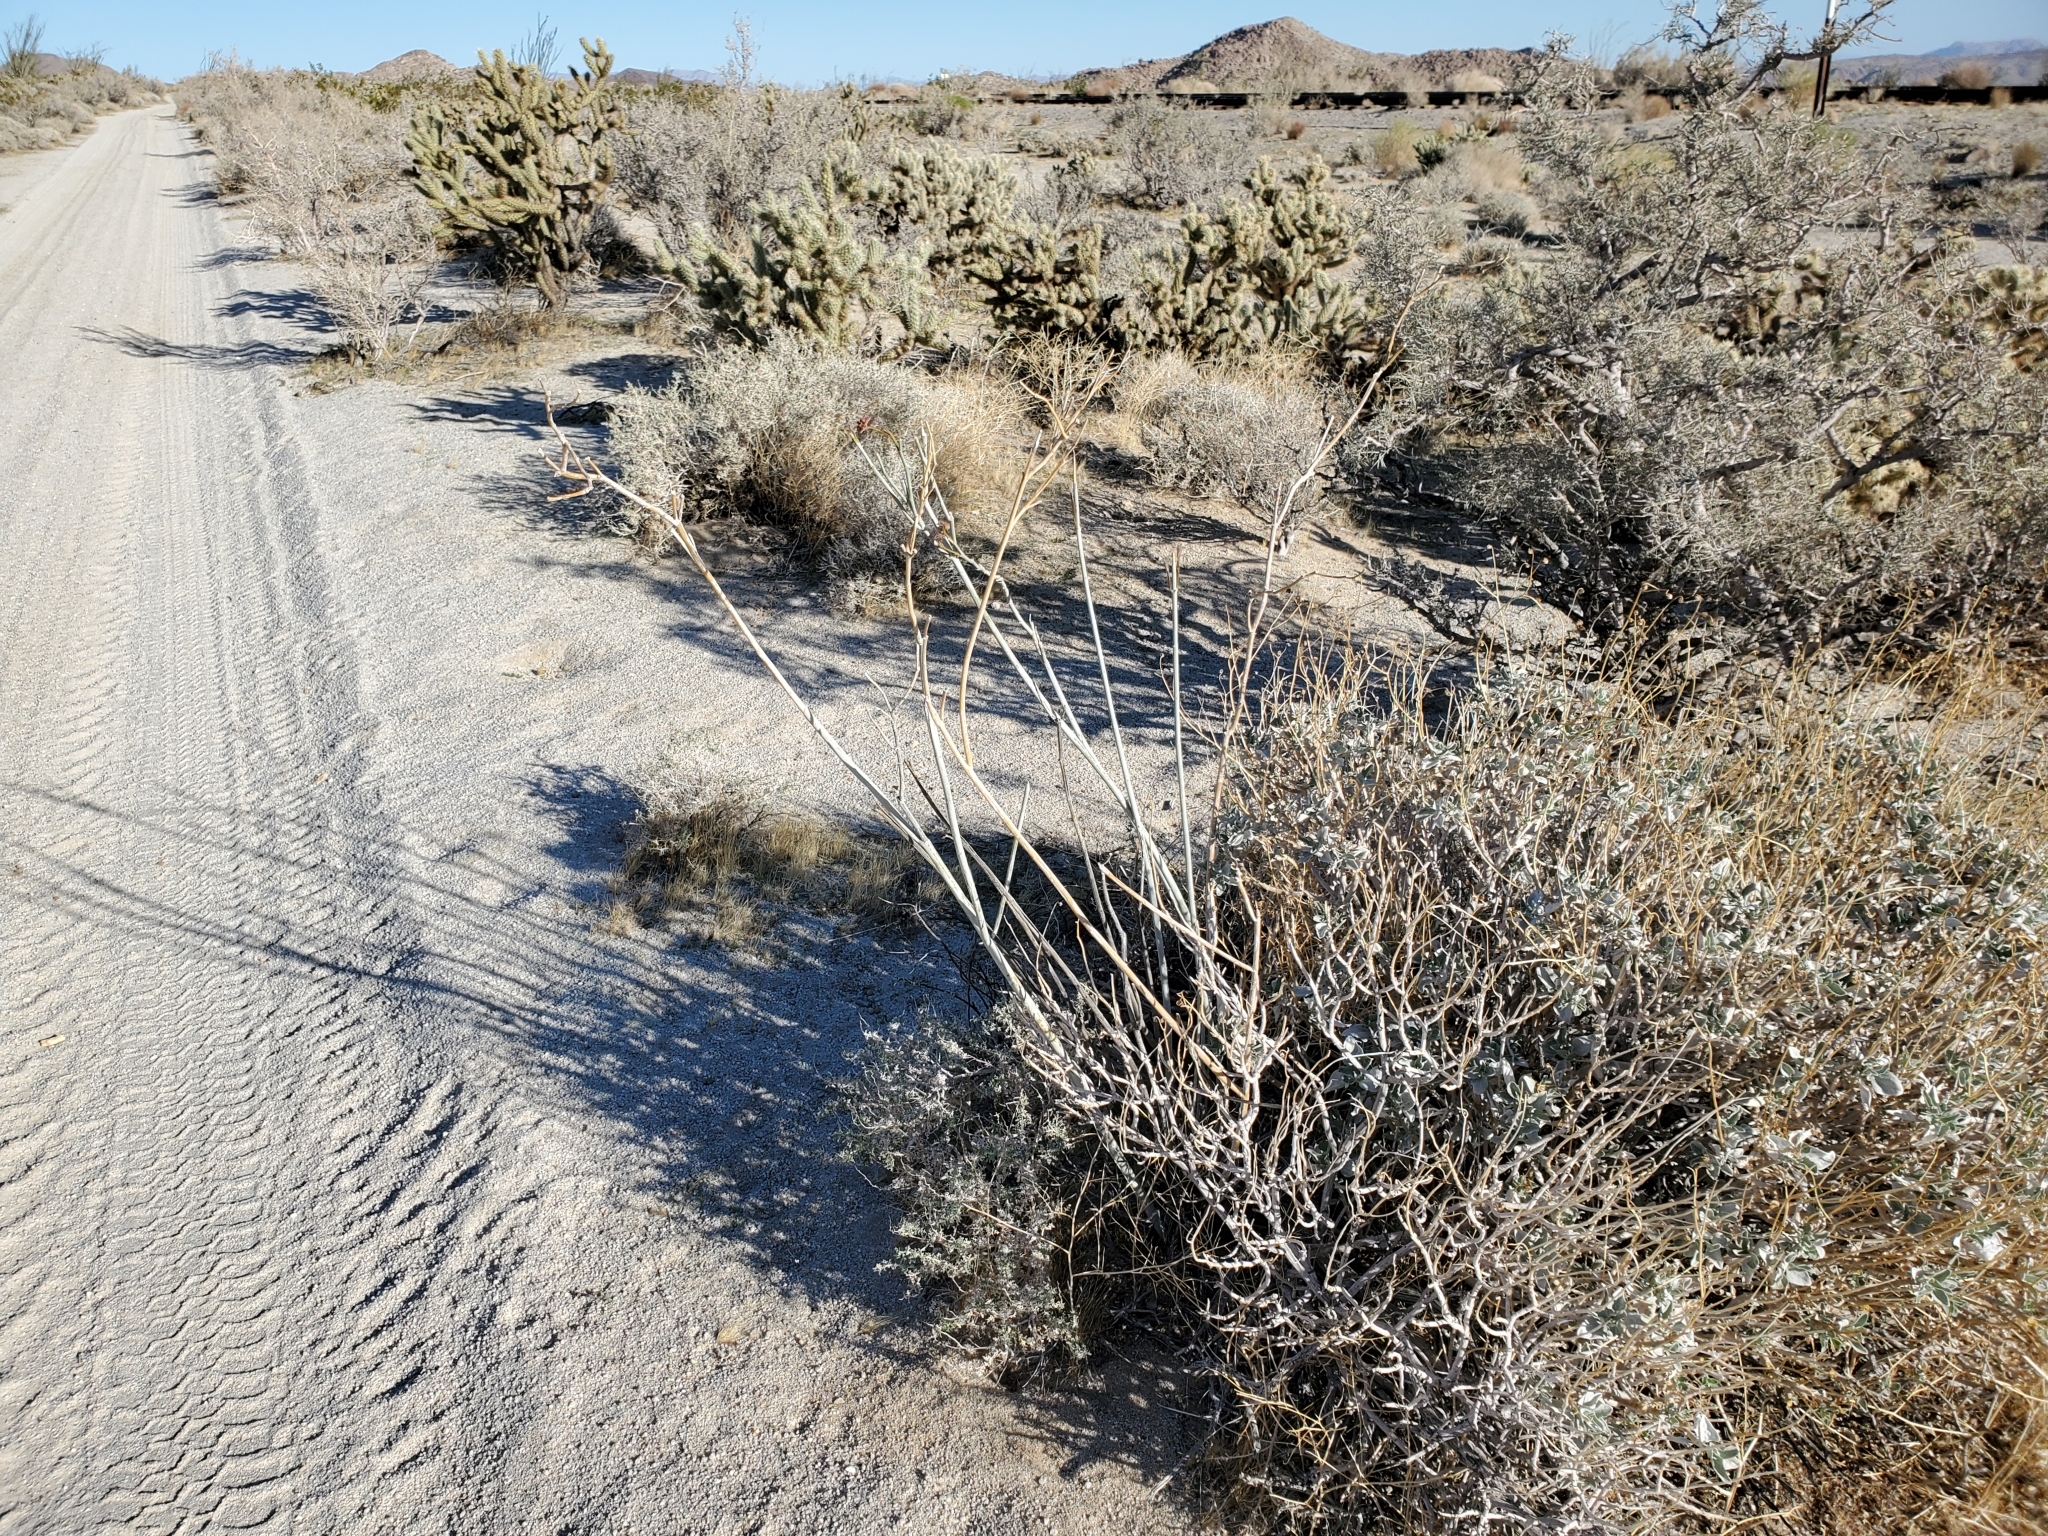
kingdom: Plantae
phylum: Tracheophyta
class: Magnoliopsida
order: Gentianales
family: Apocynaceae
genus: Asclepias
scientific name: Asclepias albicans
